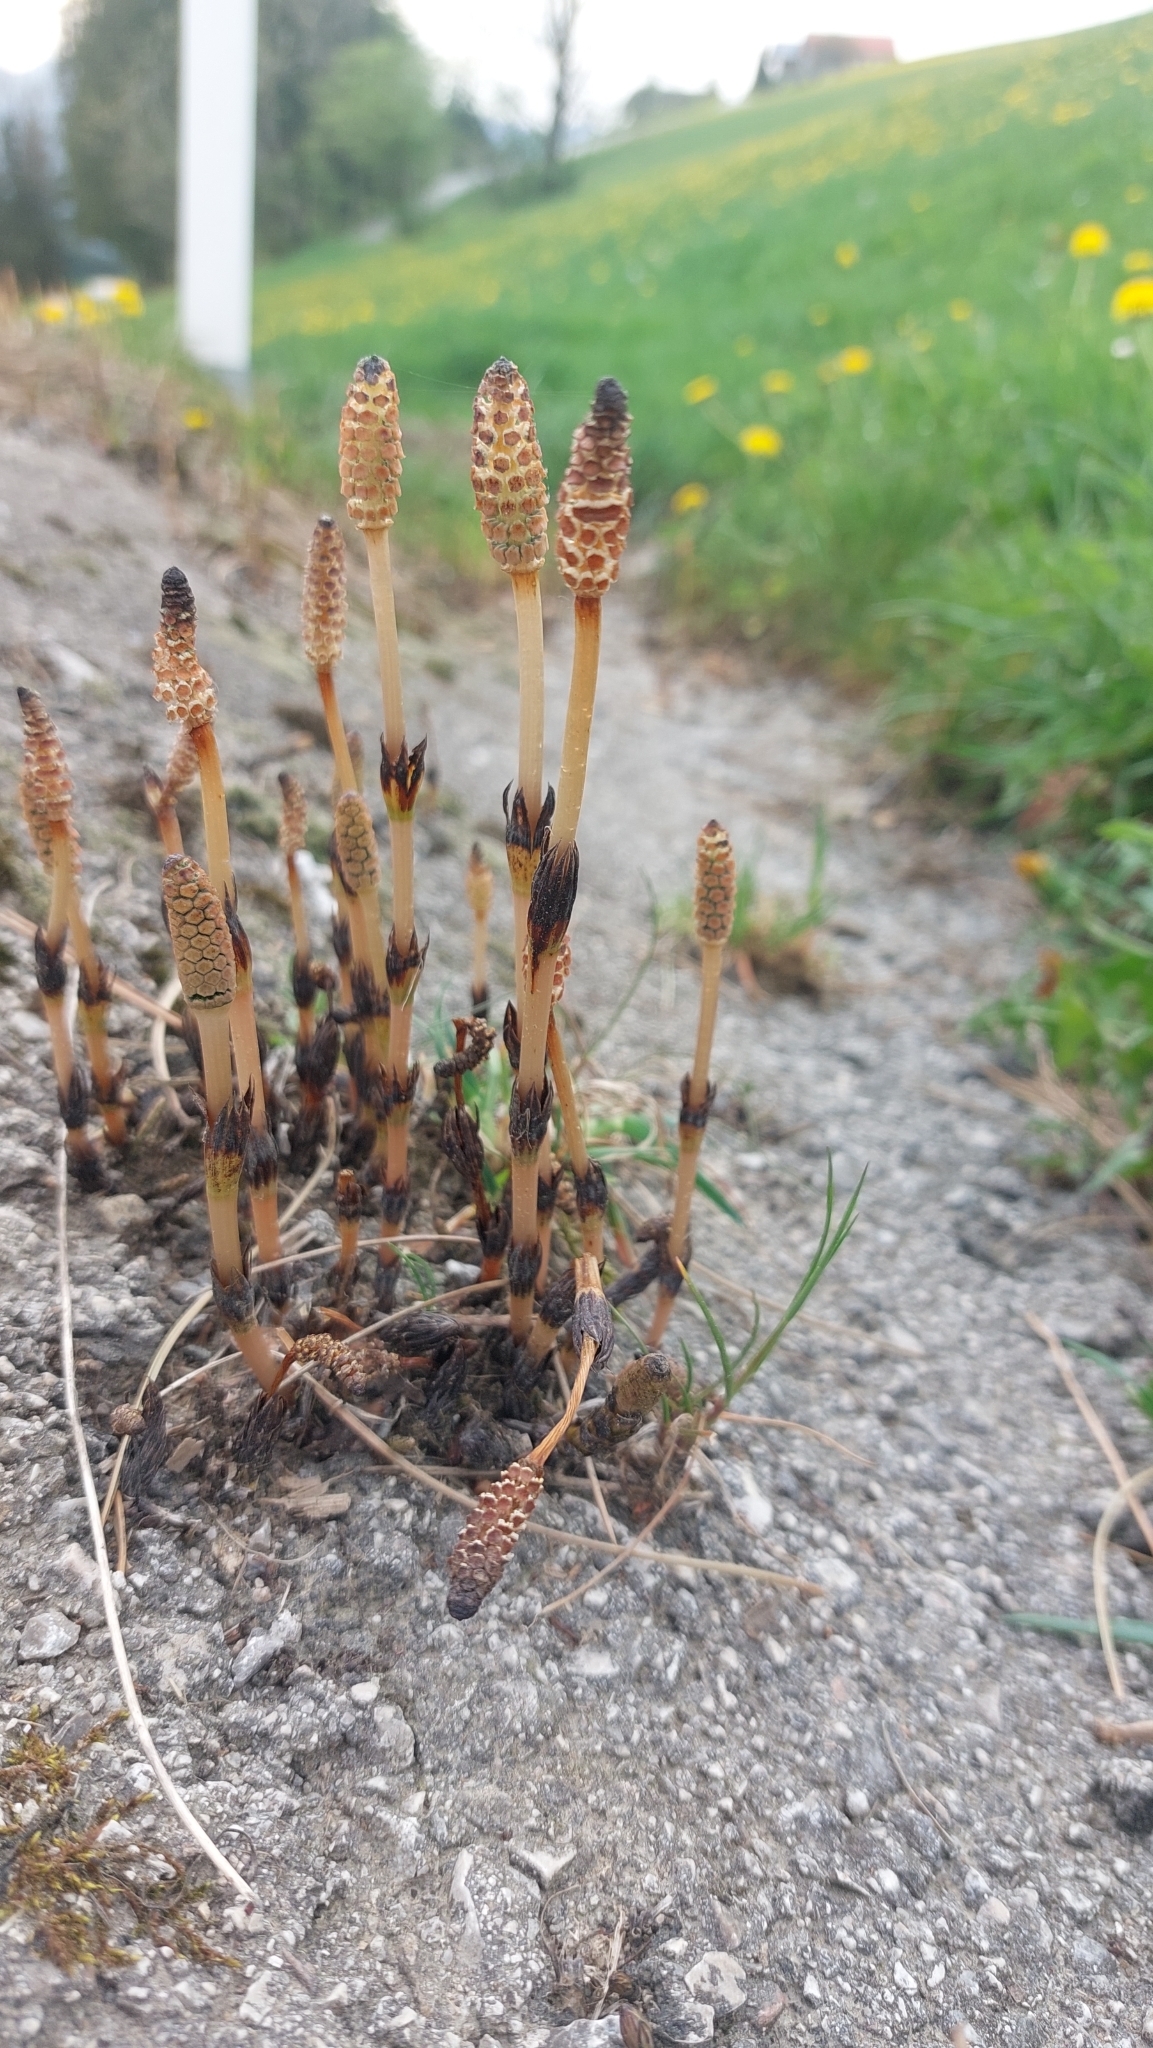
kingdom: Plantae
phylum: Tracheophyta
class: Polypodiopsida
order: Equisetales
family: Equisetaceae
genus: Equisetum
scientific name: Equisetum arvense
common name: Field horsetail
